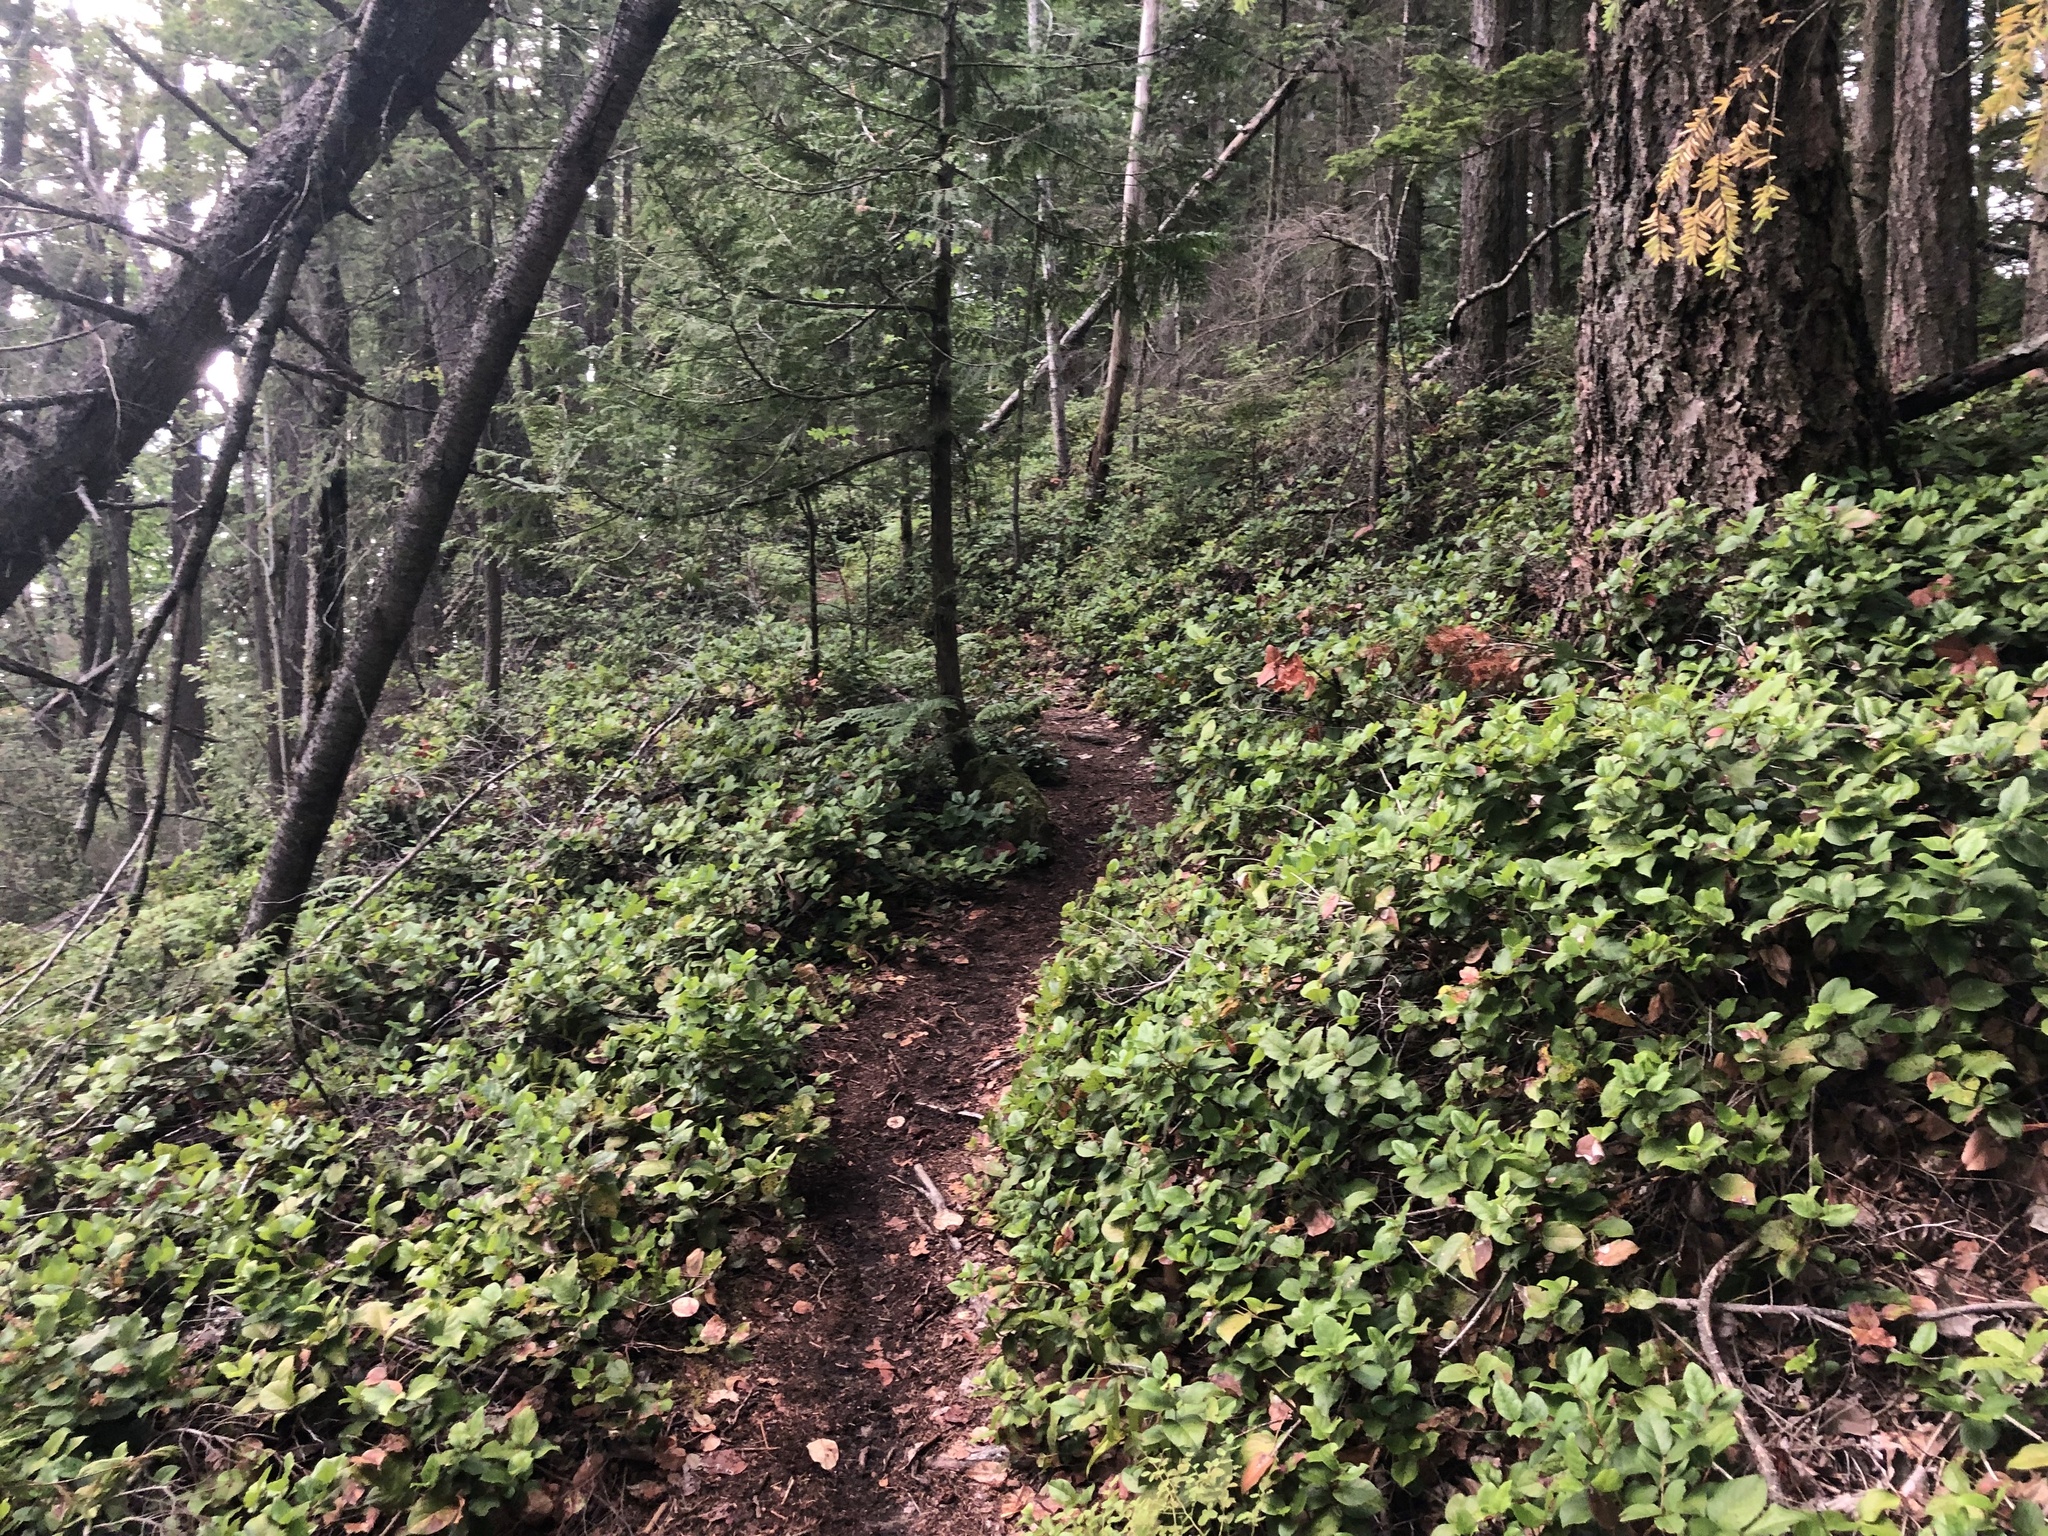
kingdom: Plantae
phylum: Tracheophyta
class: Magnoliopsida
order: Ericales
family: Ericaceae
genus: Gaultheria
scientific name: Gaultheria shallon
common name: Shallon
